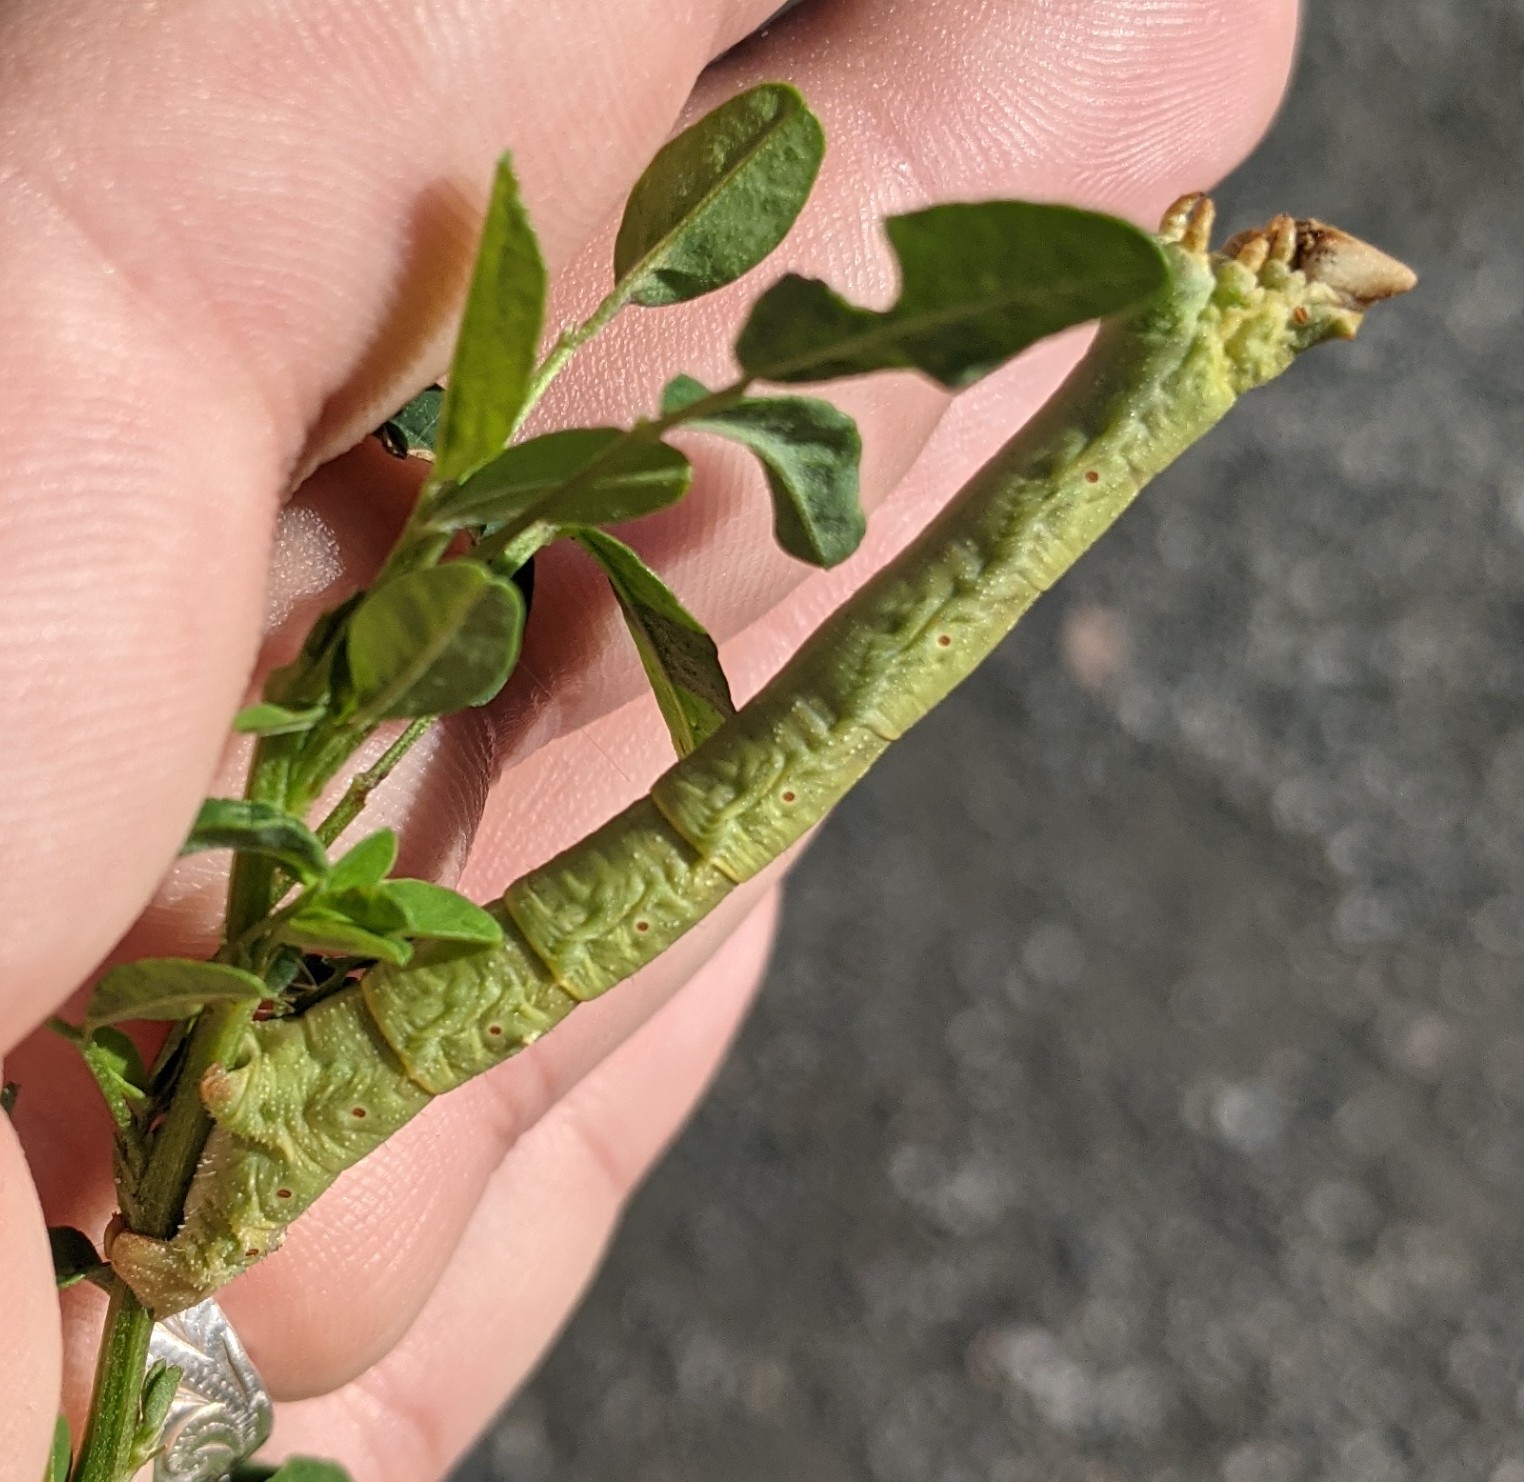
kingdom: Animalia
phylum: Arthropoda
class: Insecta
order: Lepidoptera
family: Geometridae
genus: Biston
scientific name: Biston betularia
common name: Peppered moth
